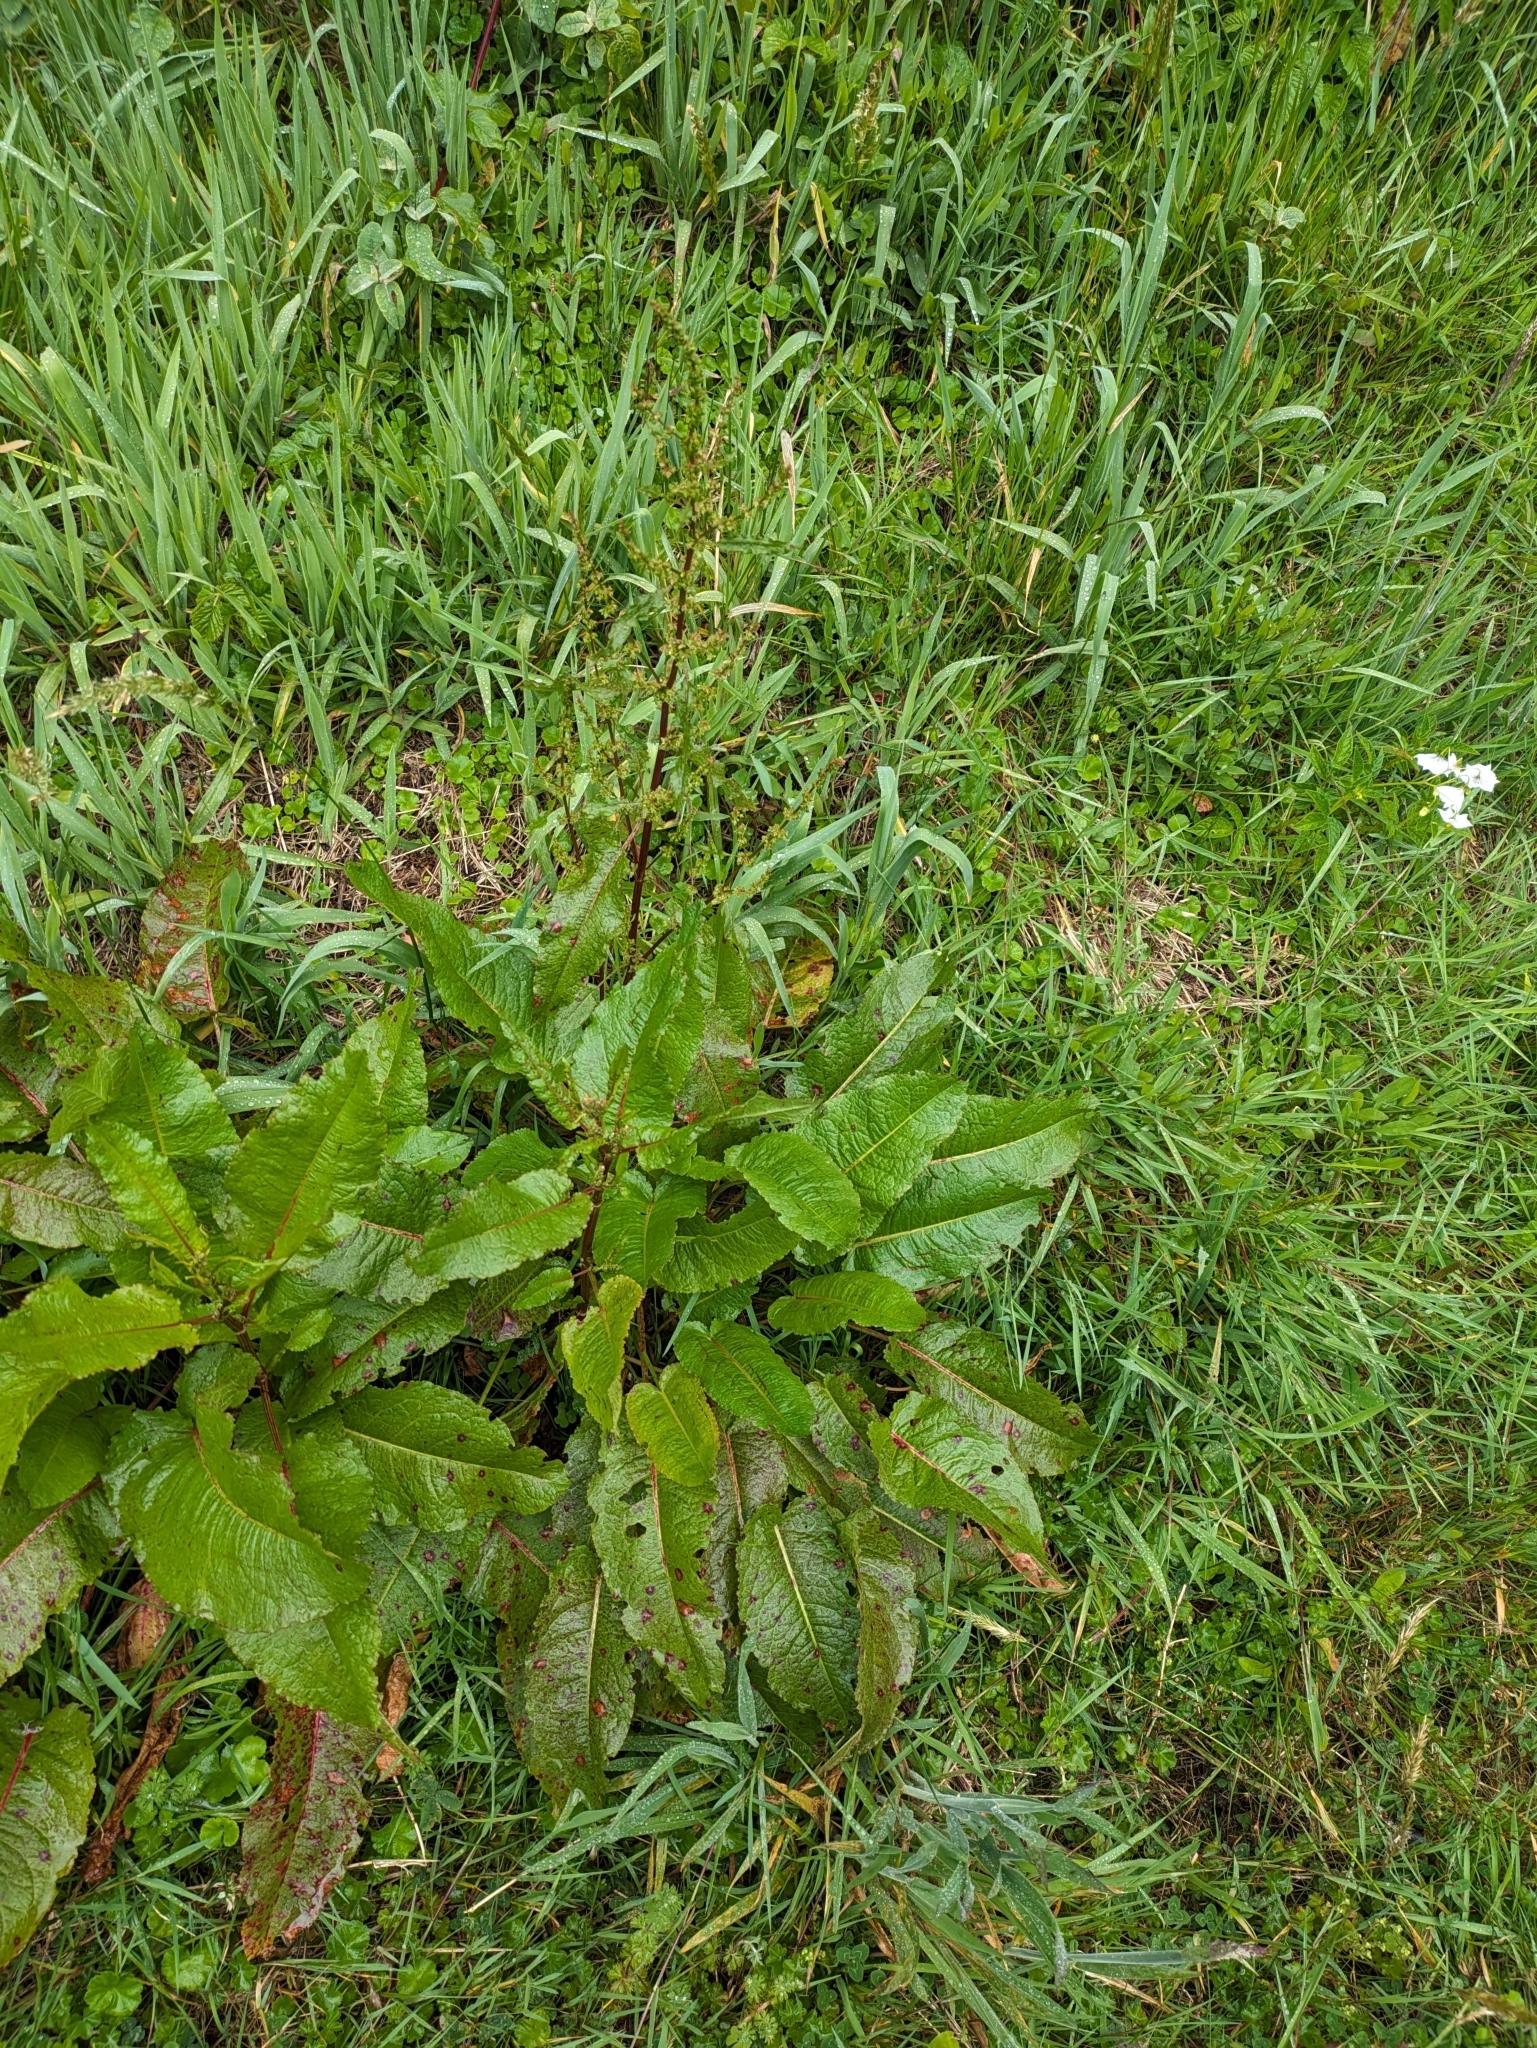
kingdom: Plantae
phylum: Tracheophyta
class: Magnoliopsida
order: Caryophyllales
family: Polygonaceae
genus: Rumex
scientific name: Rumex obtusifolius
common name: Bitter dock
